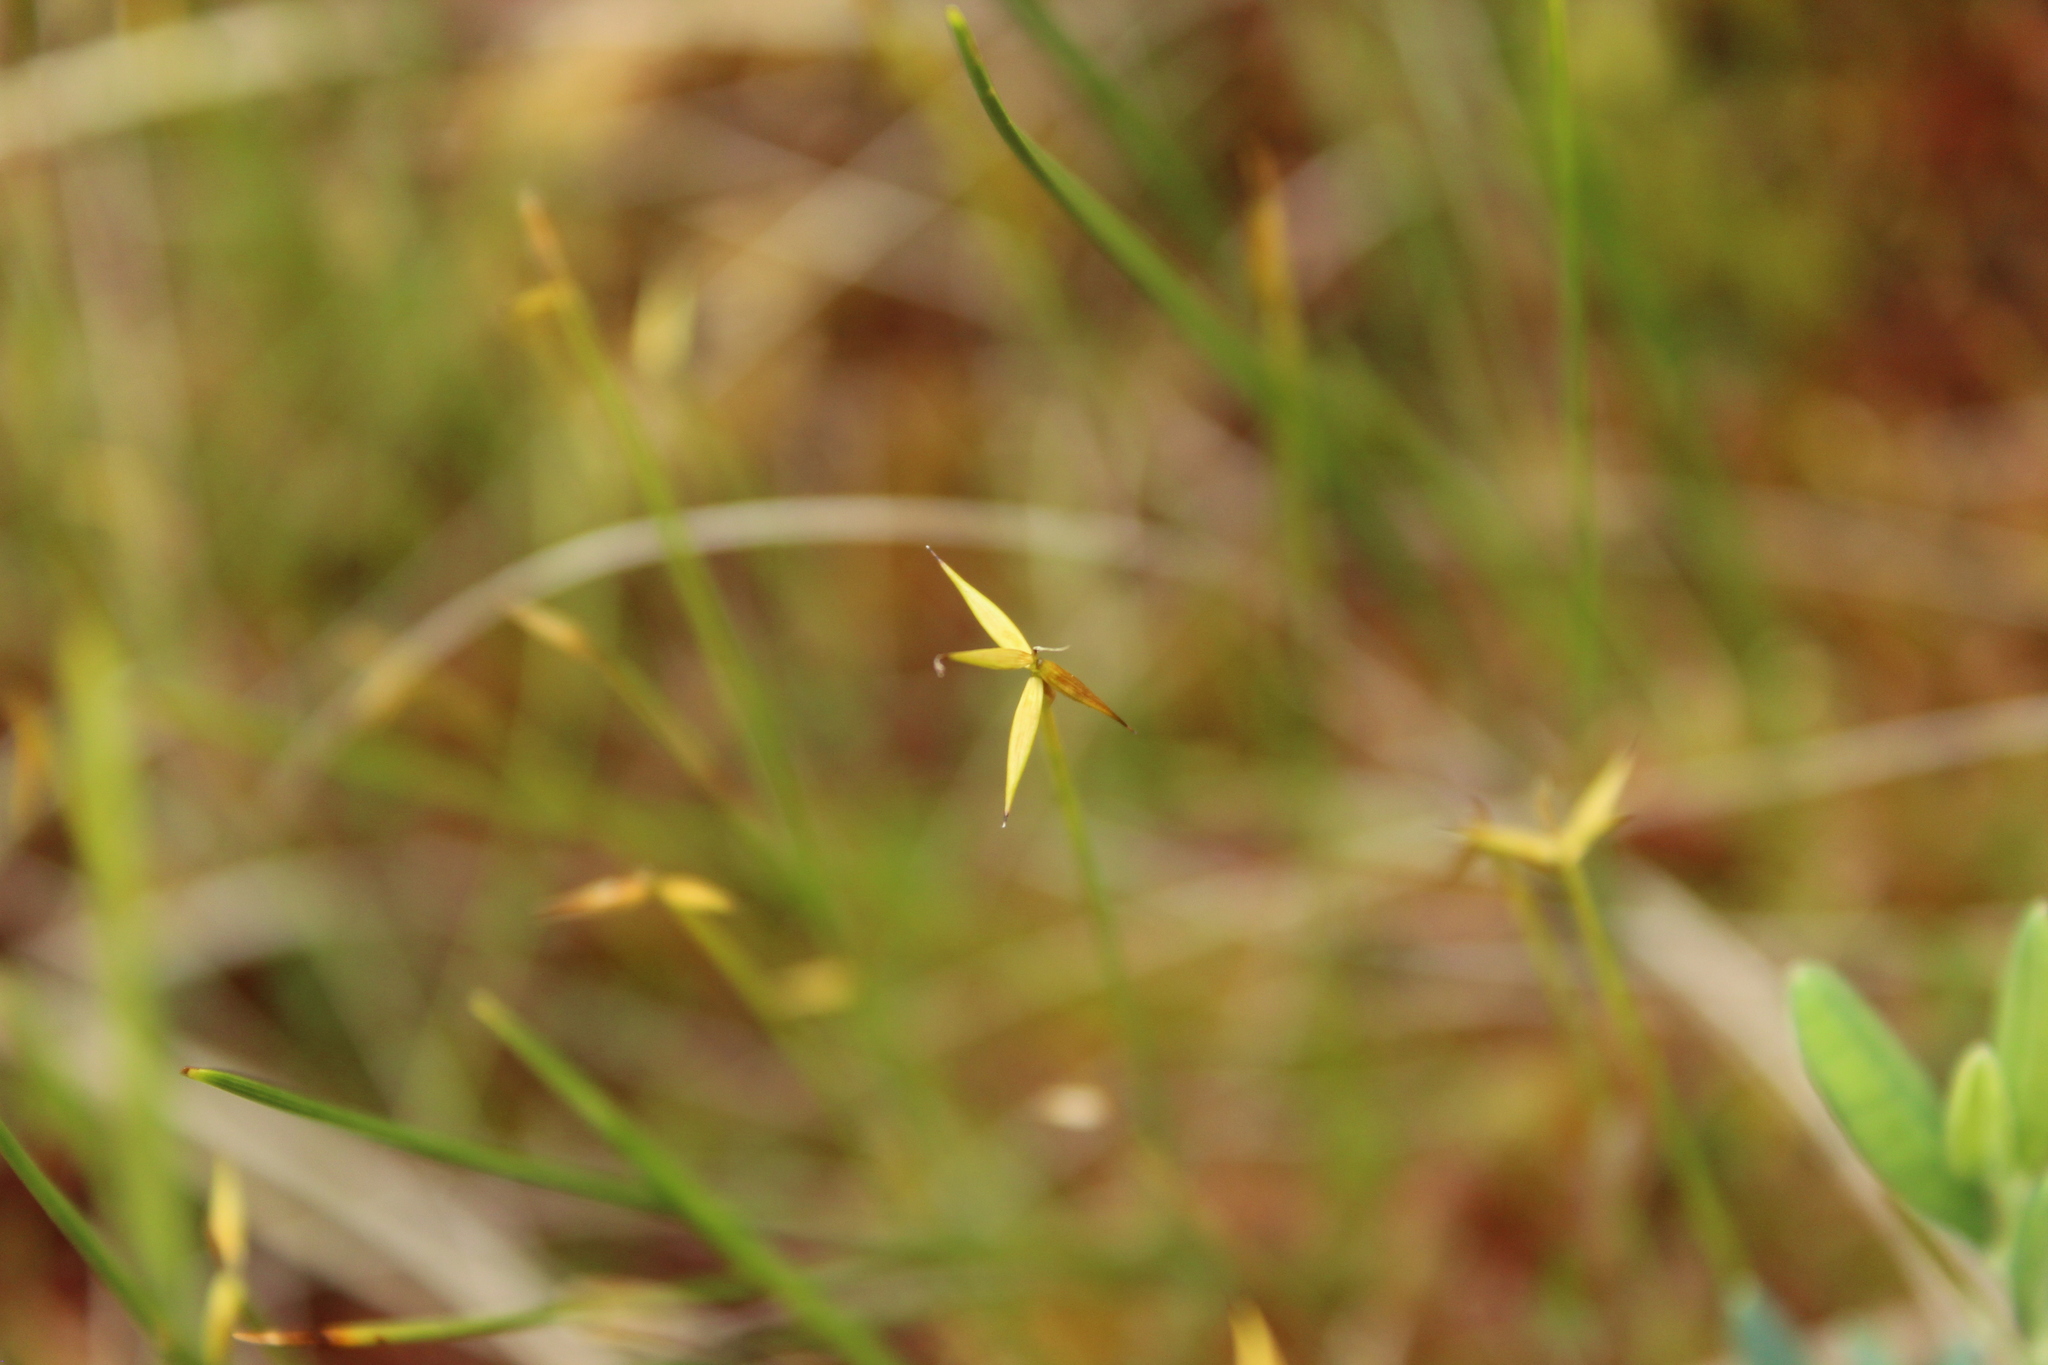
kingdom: Plantae
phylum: Tracheophyta
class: Liliopsida
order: Poales
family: Cyperaceae
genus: Carex
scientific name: Carex pauciflora
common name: Few-flowered sedge
